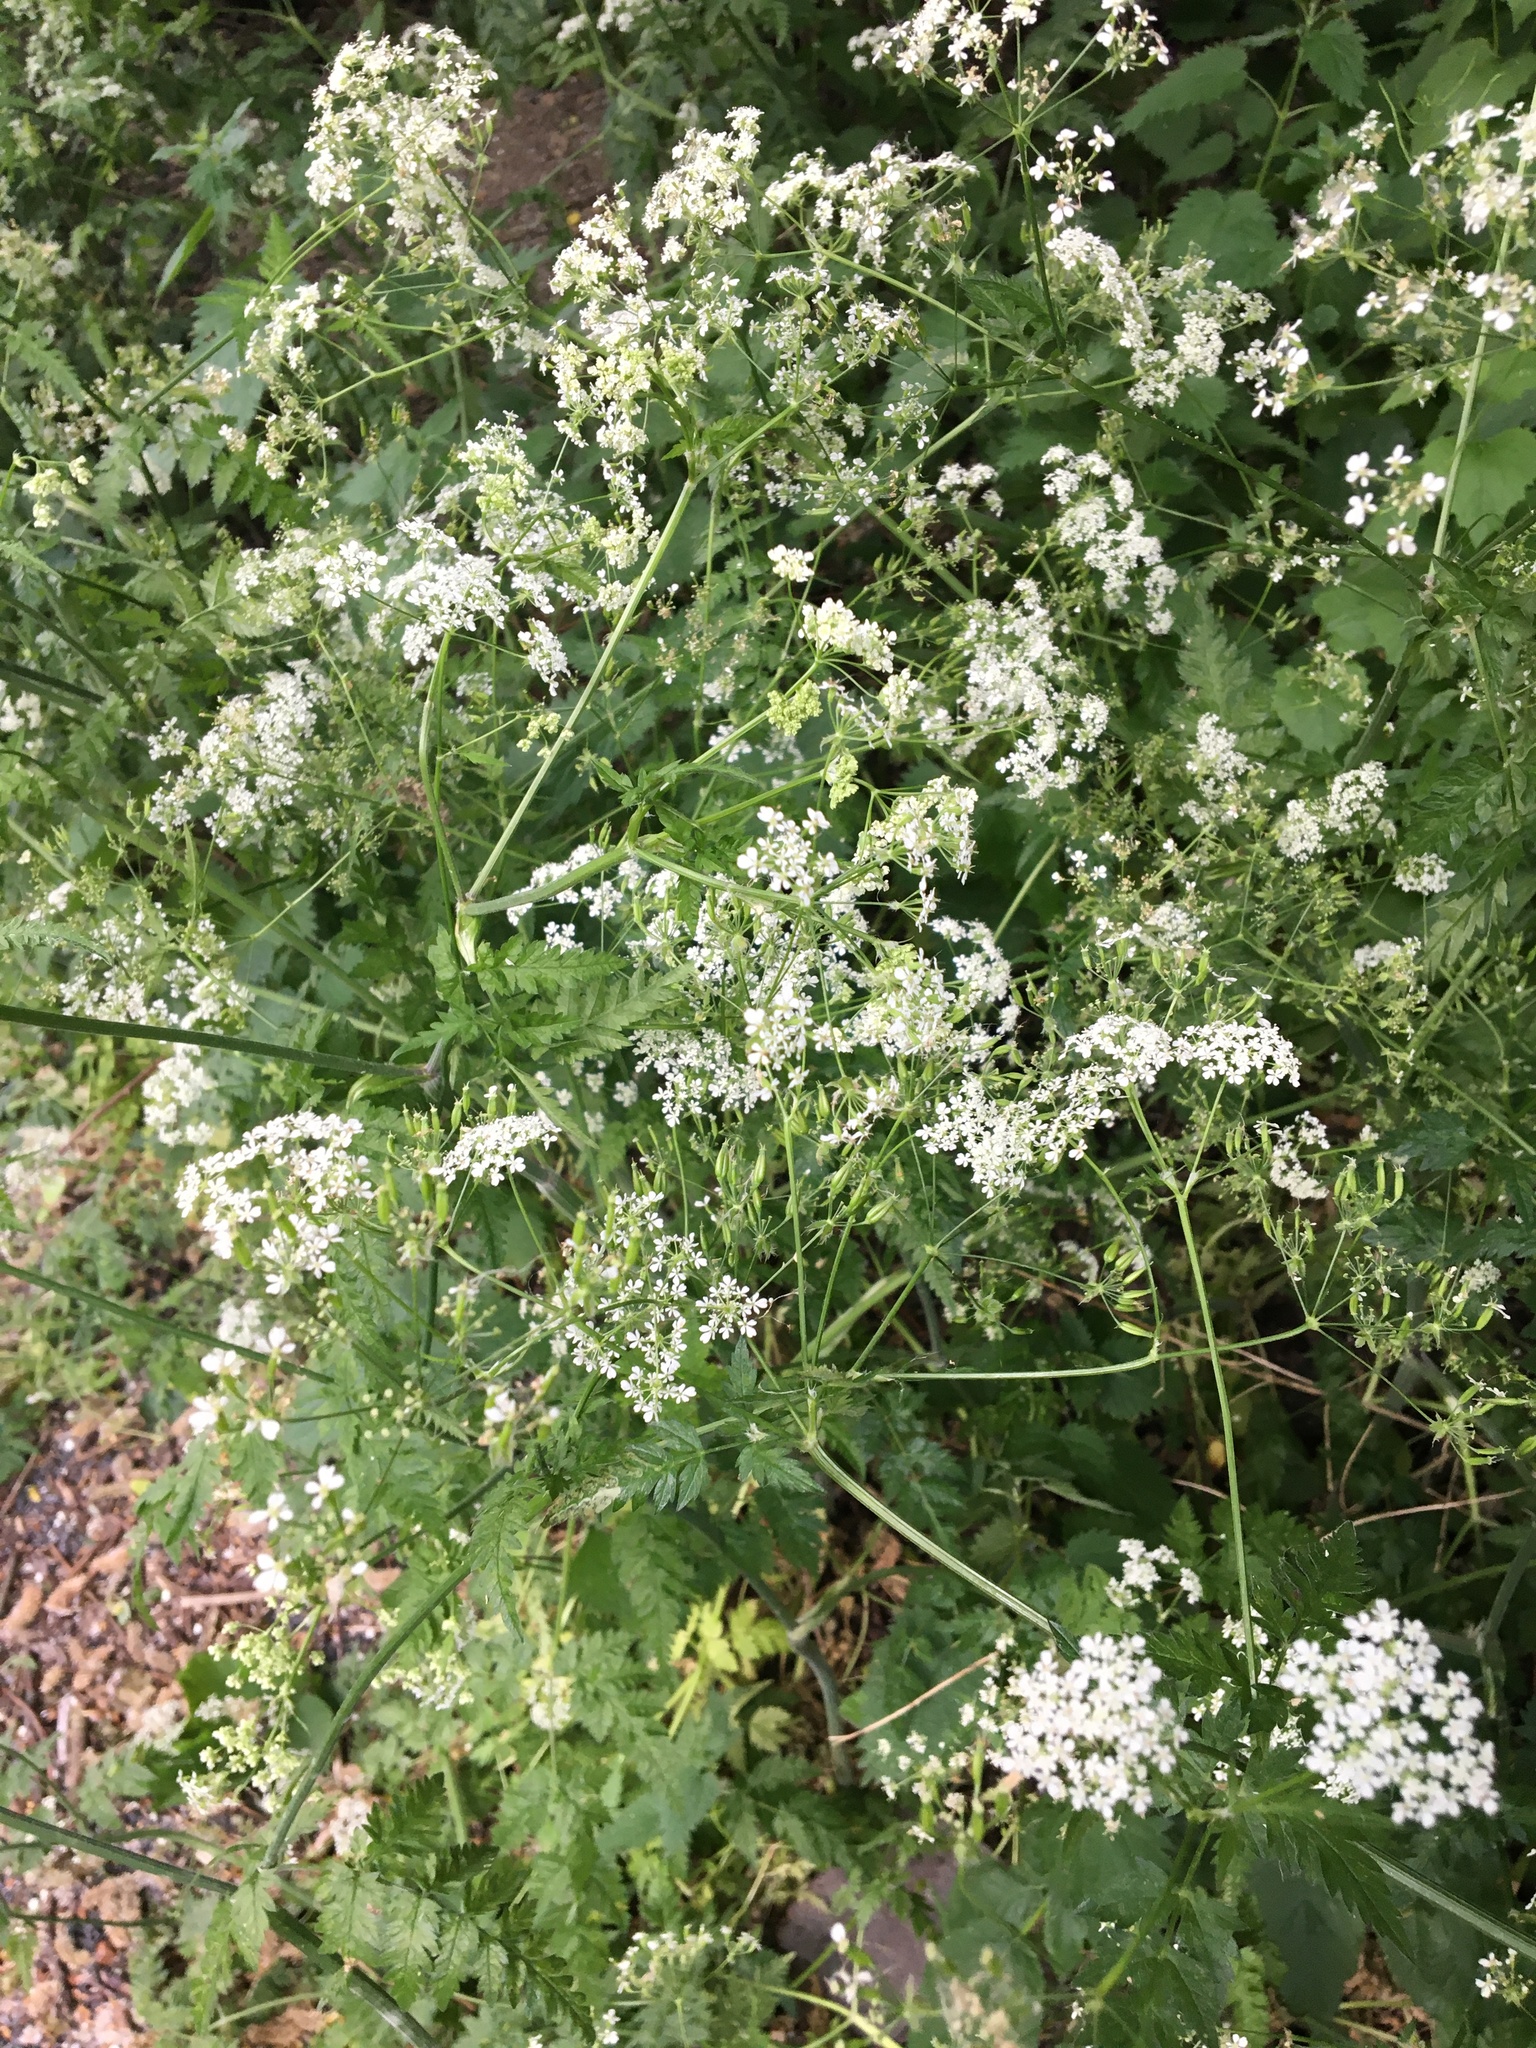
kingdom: Plantae
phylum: Tracheophyta
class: Magnoliopsida
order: Apiales
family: Apiaceae
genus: Anthriscus
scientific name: Anthriscus sylvestris
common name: Cow parsley
